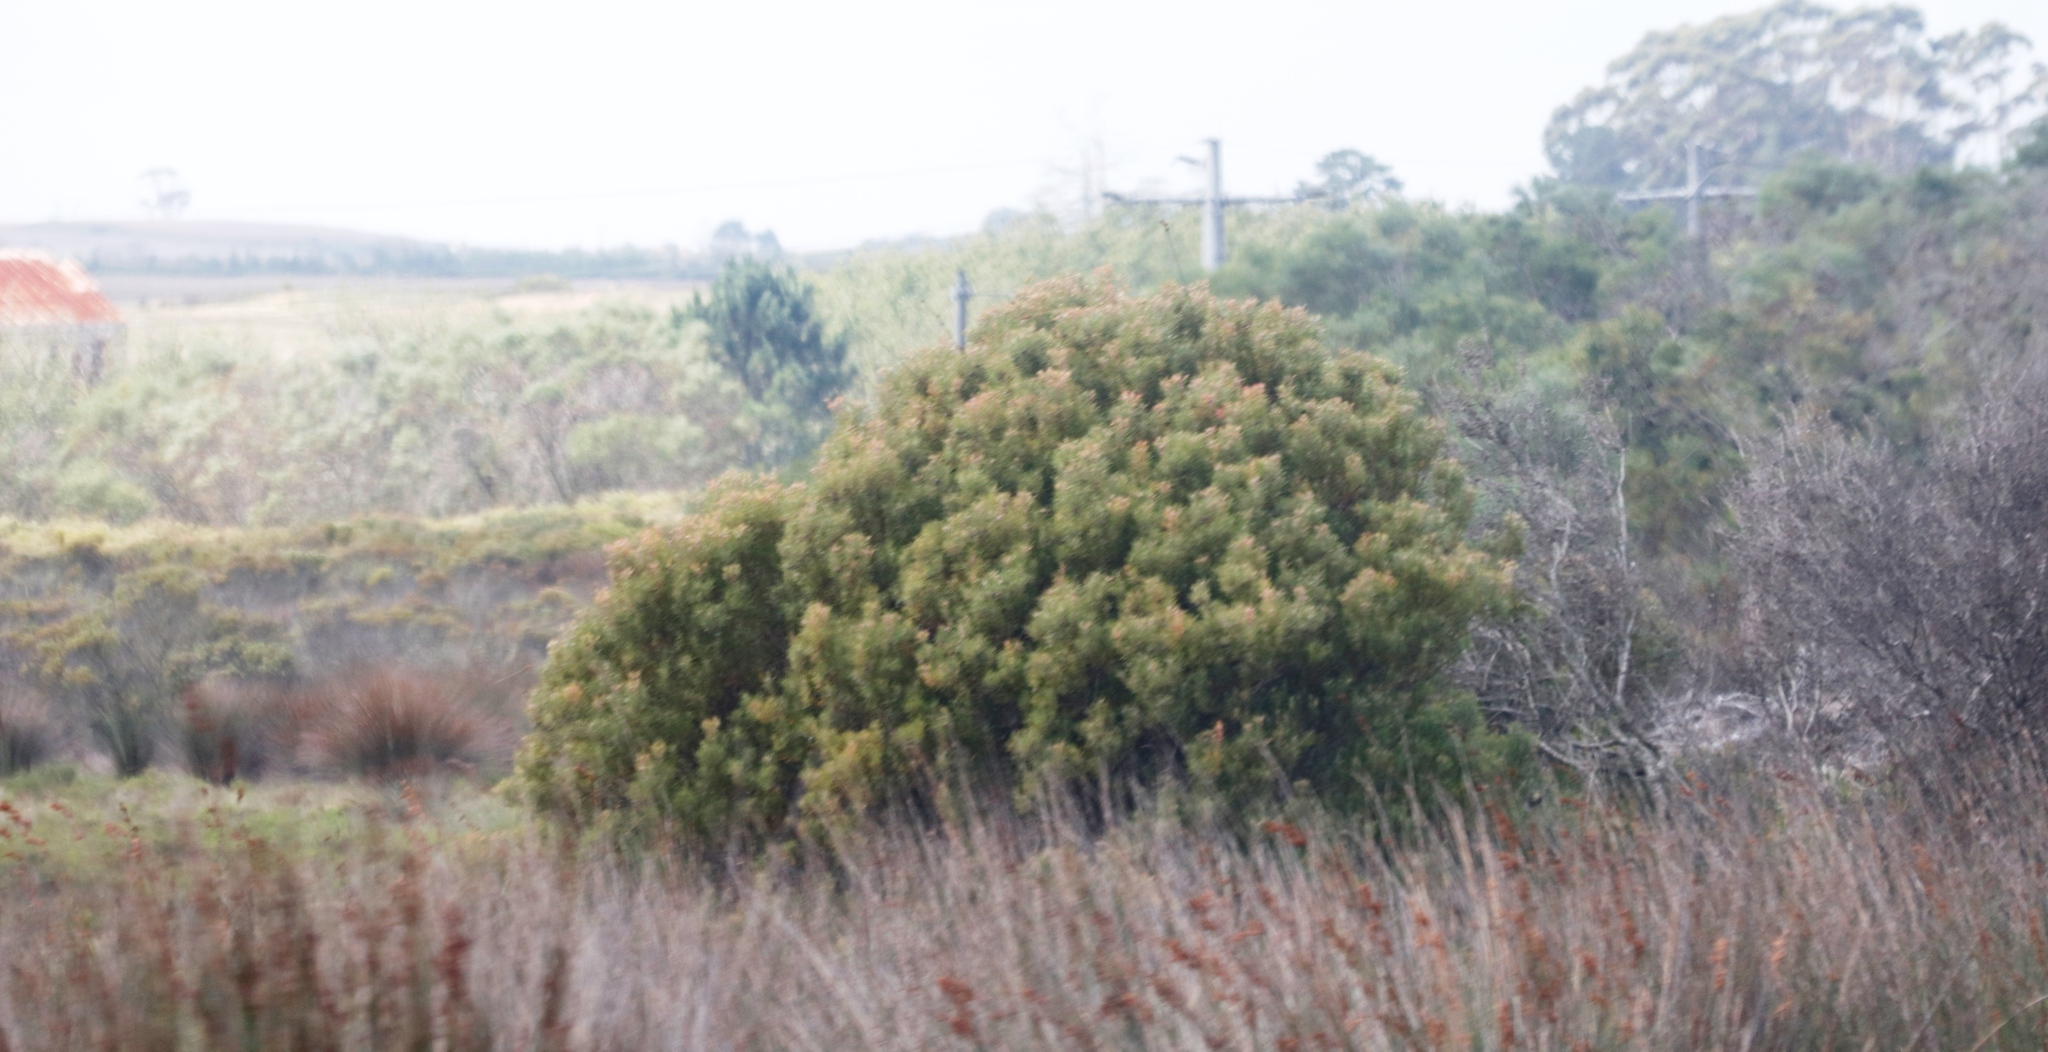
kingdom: Plantae
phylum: Tracheophyta
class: Magnoliopsida
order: Proteales
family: Proteaceae
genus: Leucadendron
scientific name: Leucadendron galpinii
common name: Hairless conebush
